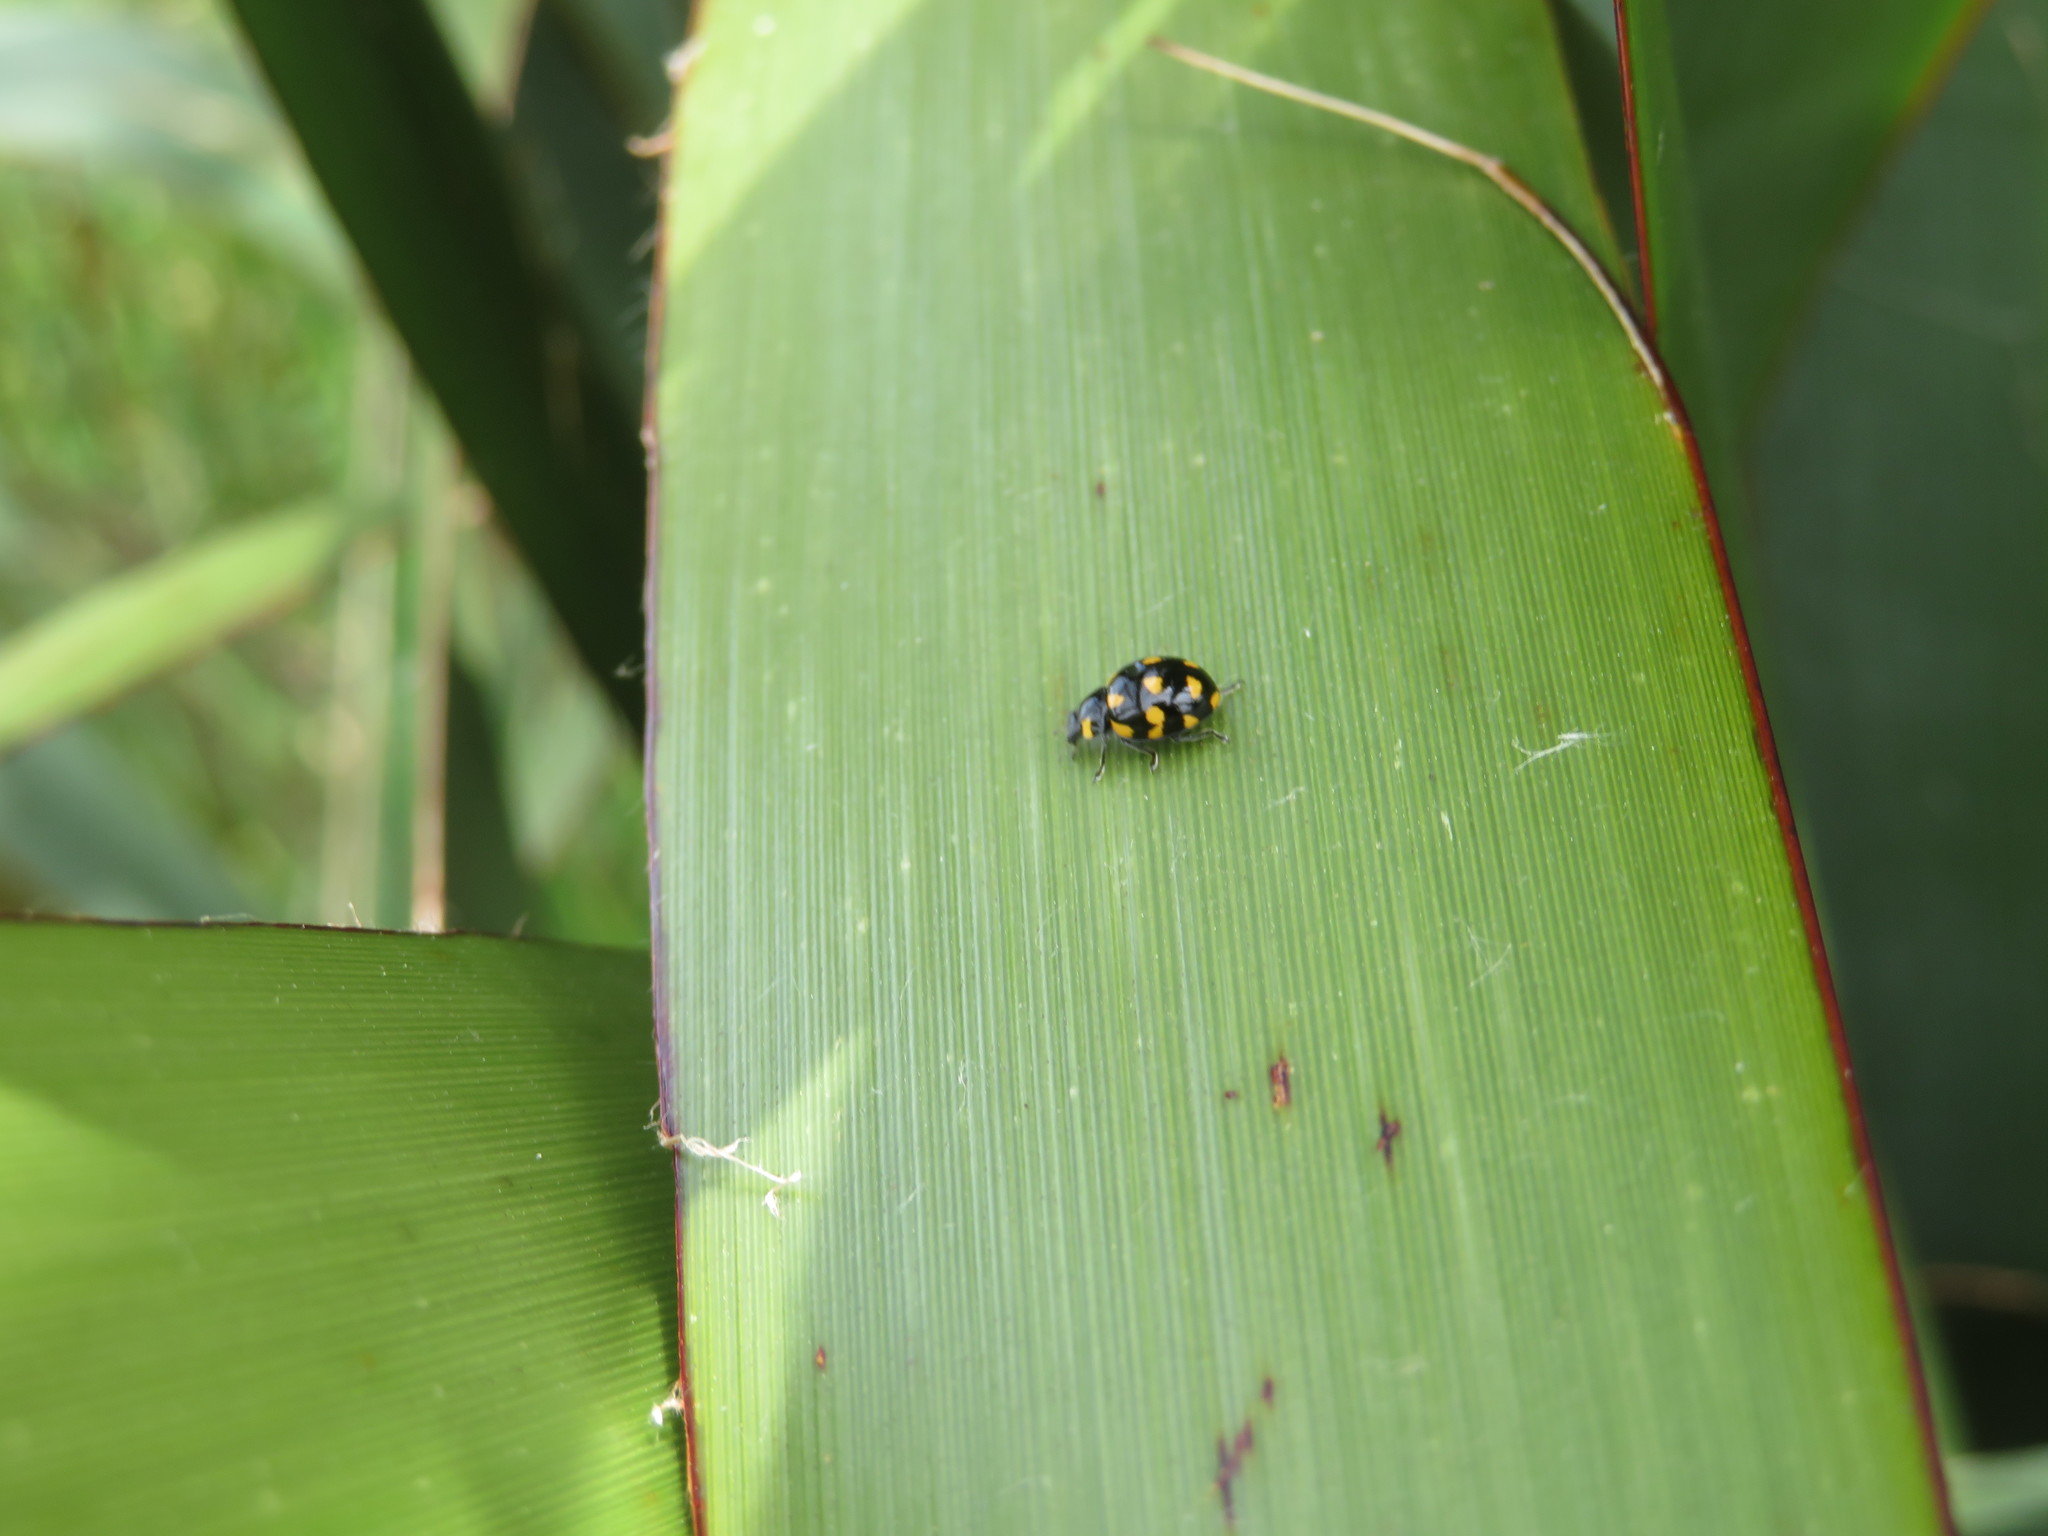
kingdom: Animalia
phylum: Arthropoda
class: Insecta
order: Coleoptera
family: Coccinellidae
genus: Coccinella
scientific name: Coccinella leonina
